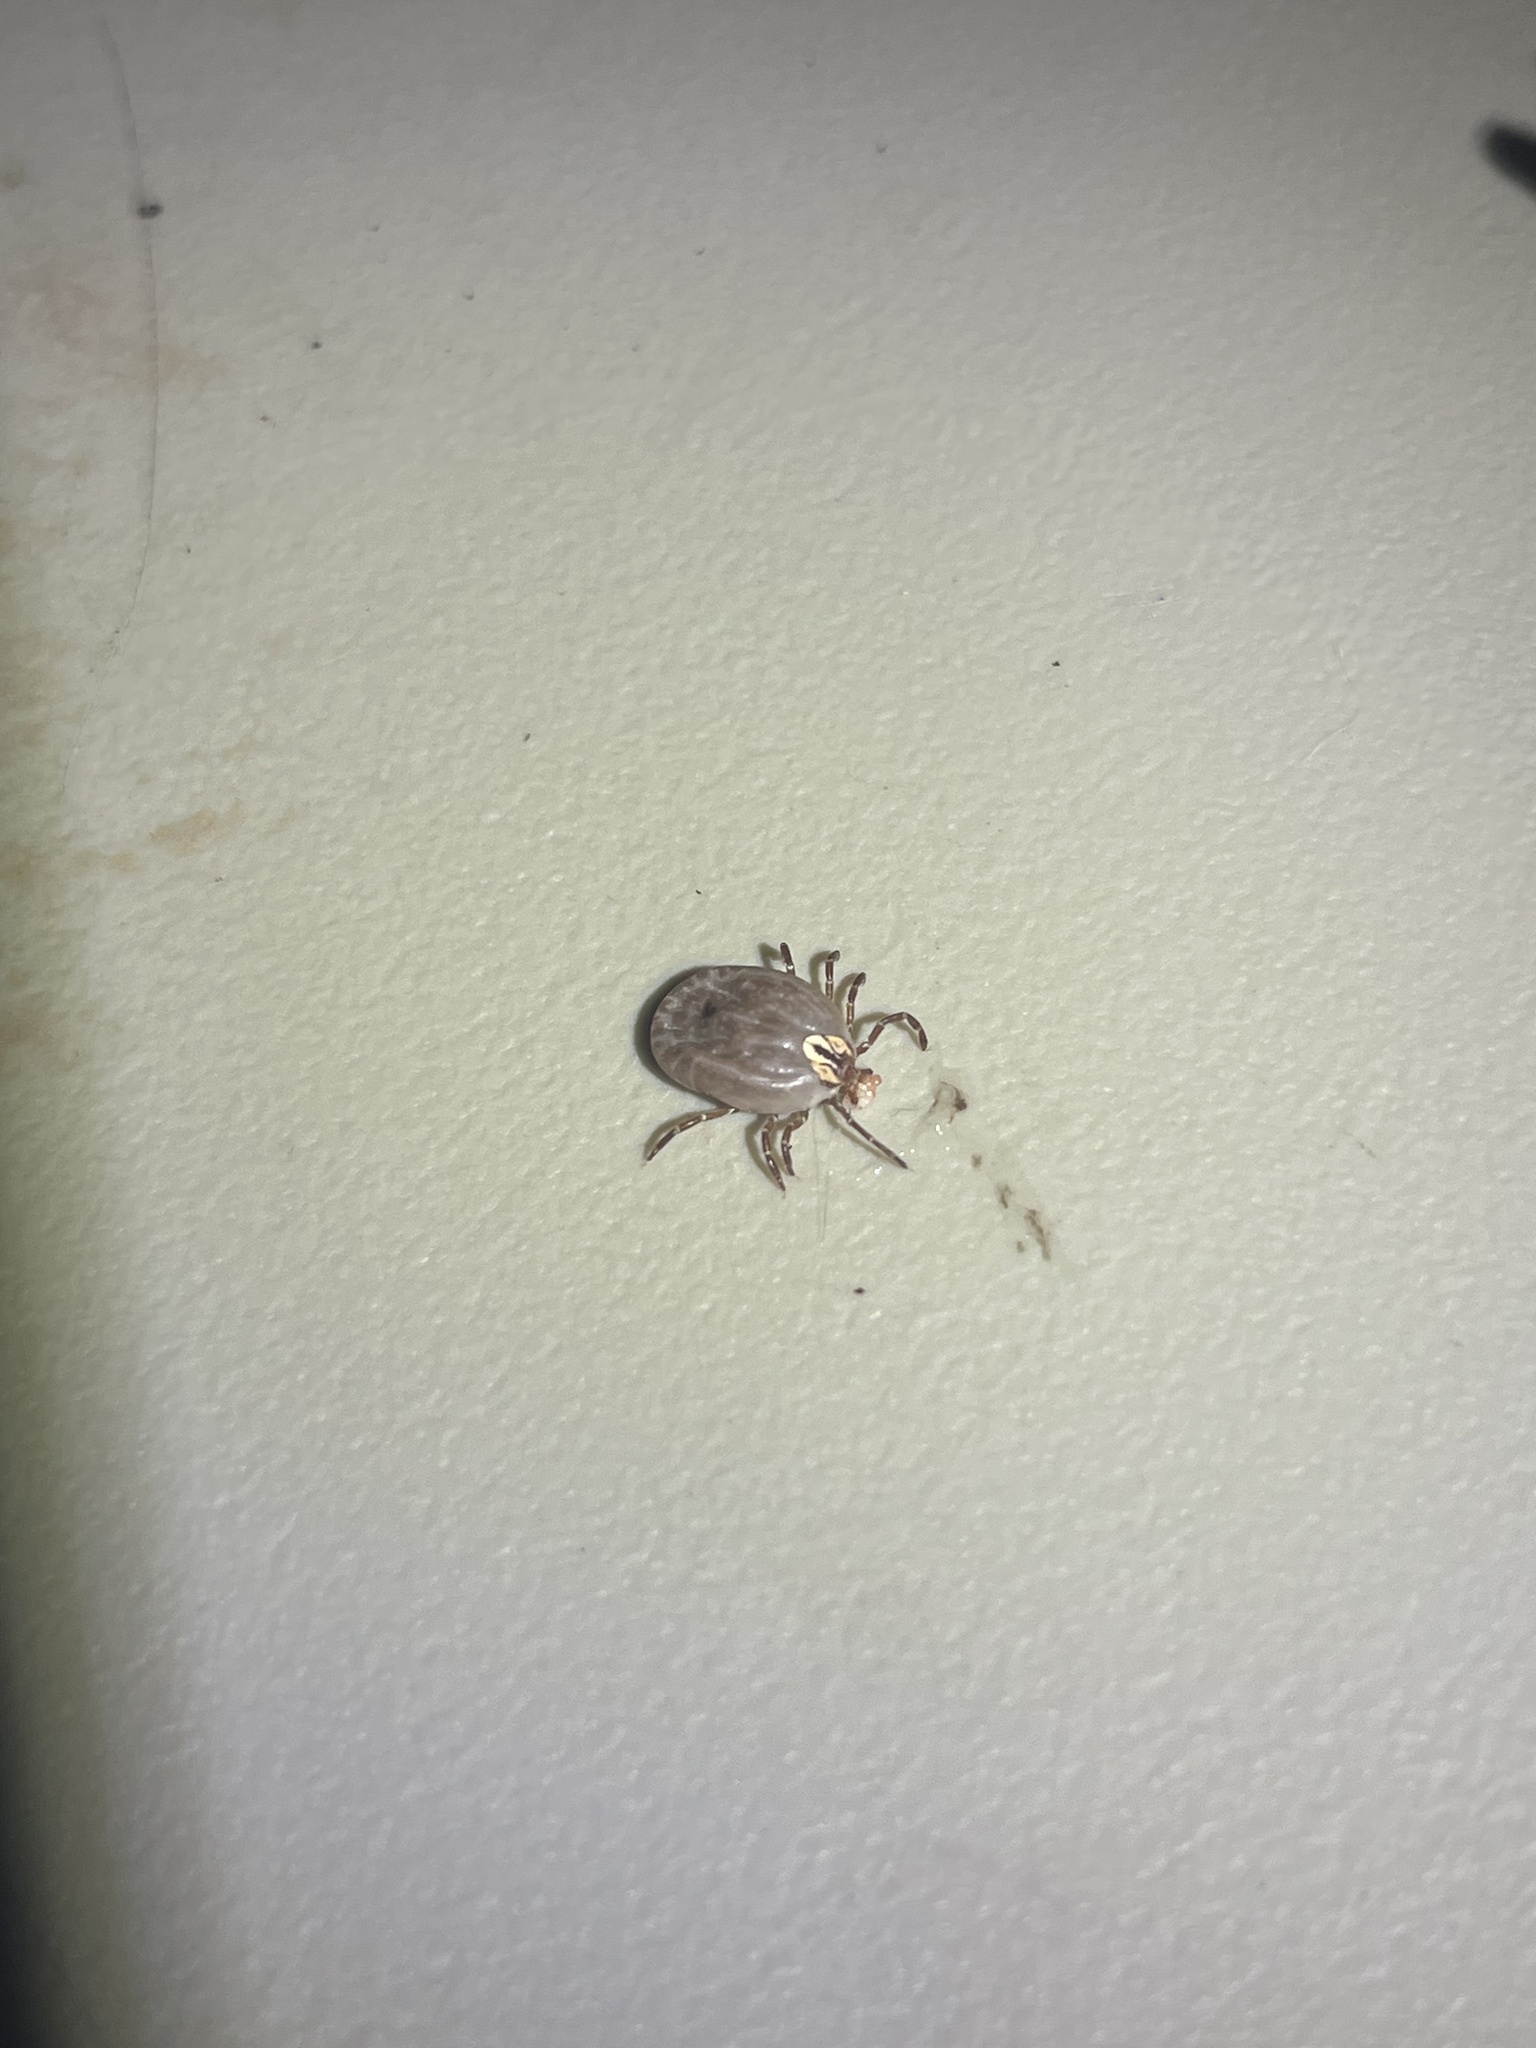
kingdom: Animalia
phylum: Arthropoda
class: Arachnida
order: Ixodida
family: Ixodidae
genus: Amblyomma
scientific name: Amblyomma maculatum
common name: Gulf coast tick
